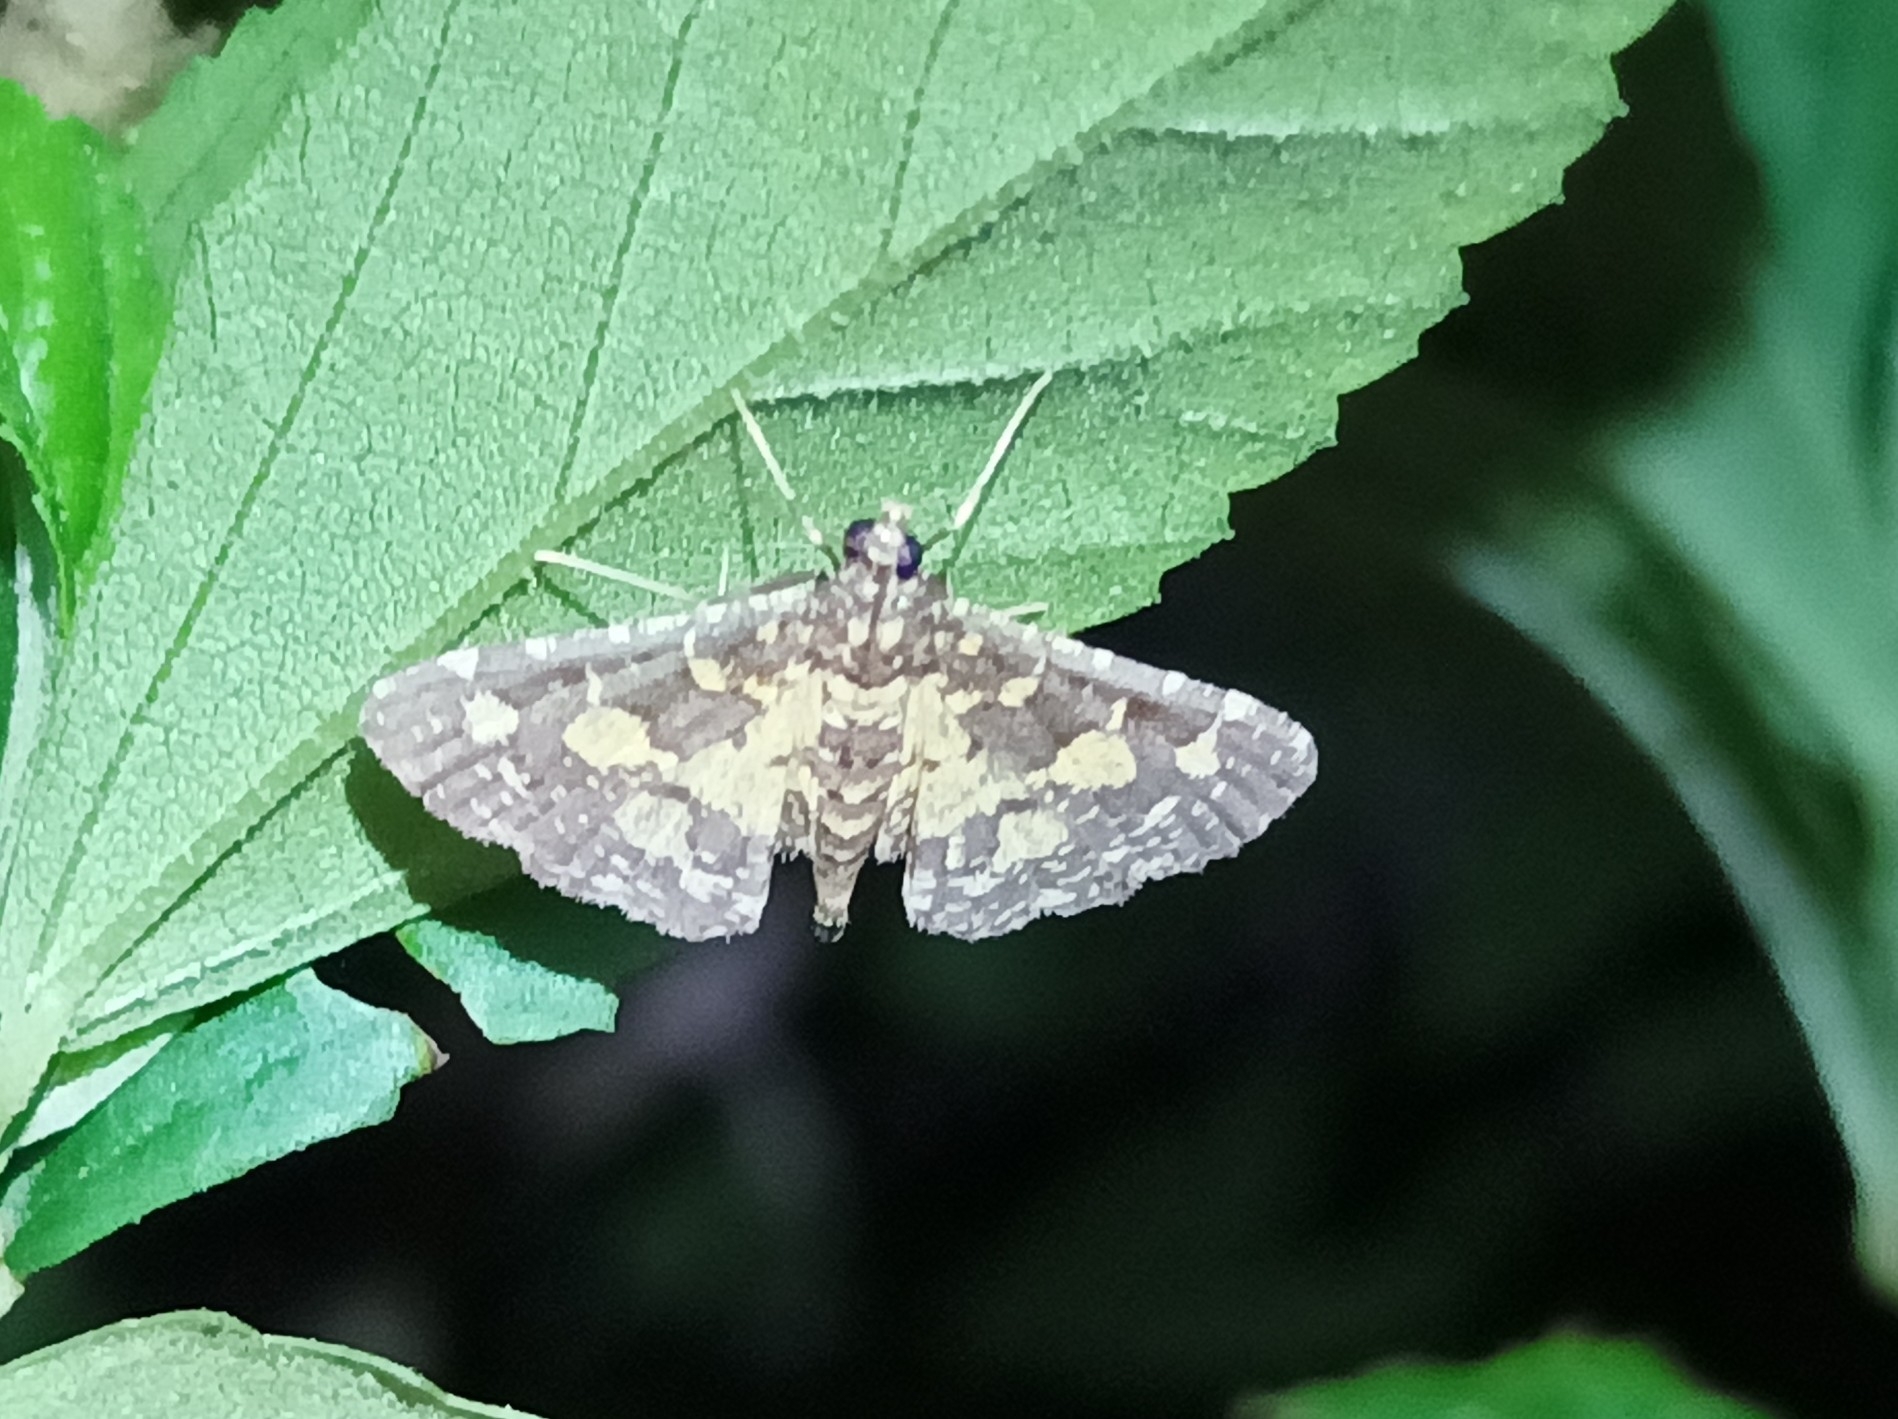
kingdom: Animalia
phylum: Arthropoda
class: Insecta
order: Lepidoptera
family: Crambidae
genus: Eurrhyparodes
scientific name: Eurrhyparodes bracteolalis
